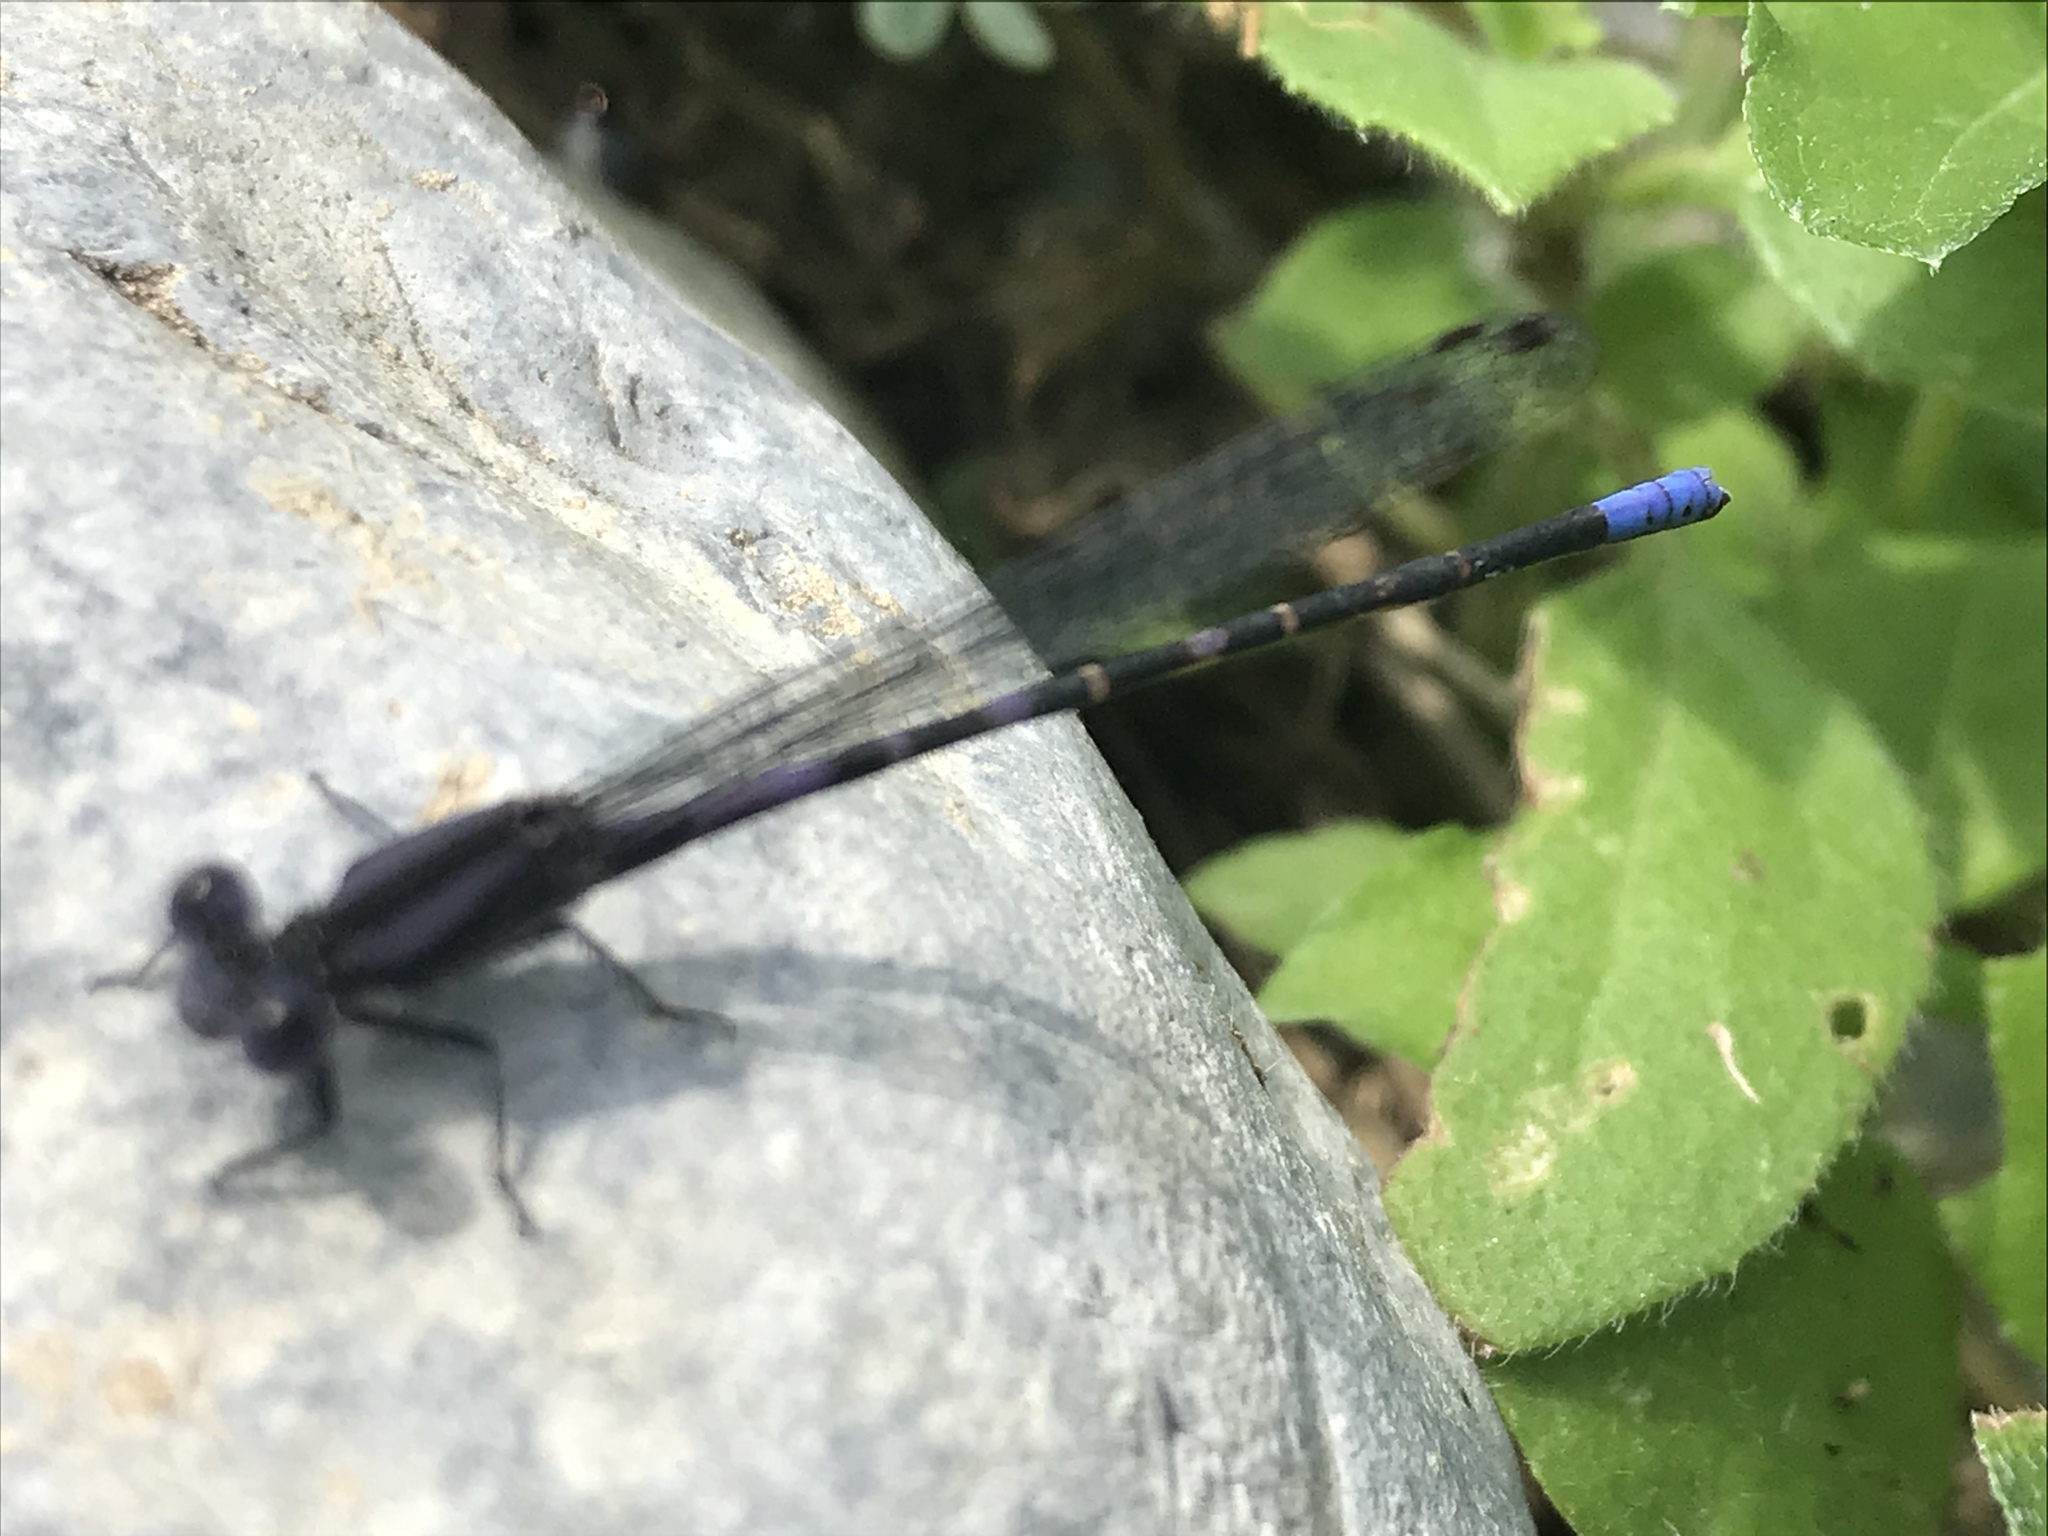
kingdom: Animalia
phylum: Arthropoda
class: Insecta
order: Odonata
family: Coenagrionidae
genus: Argia
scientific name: Argia immunda
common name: Kiowa dancer
